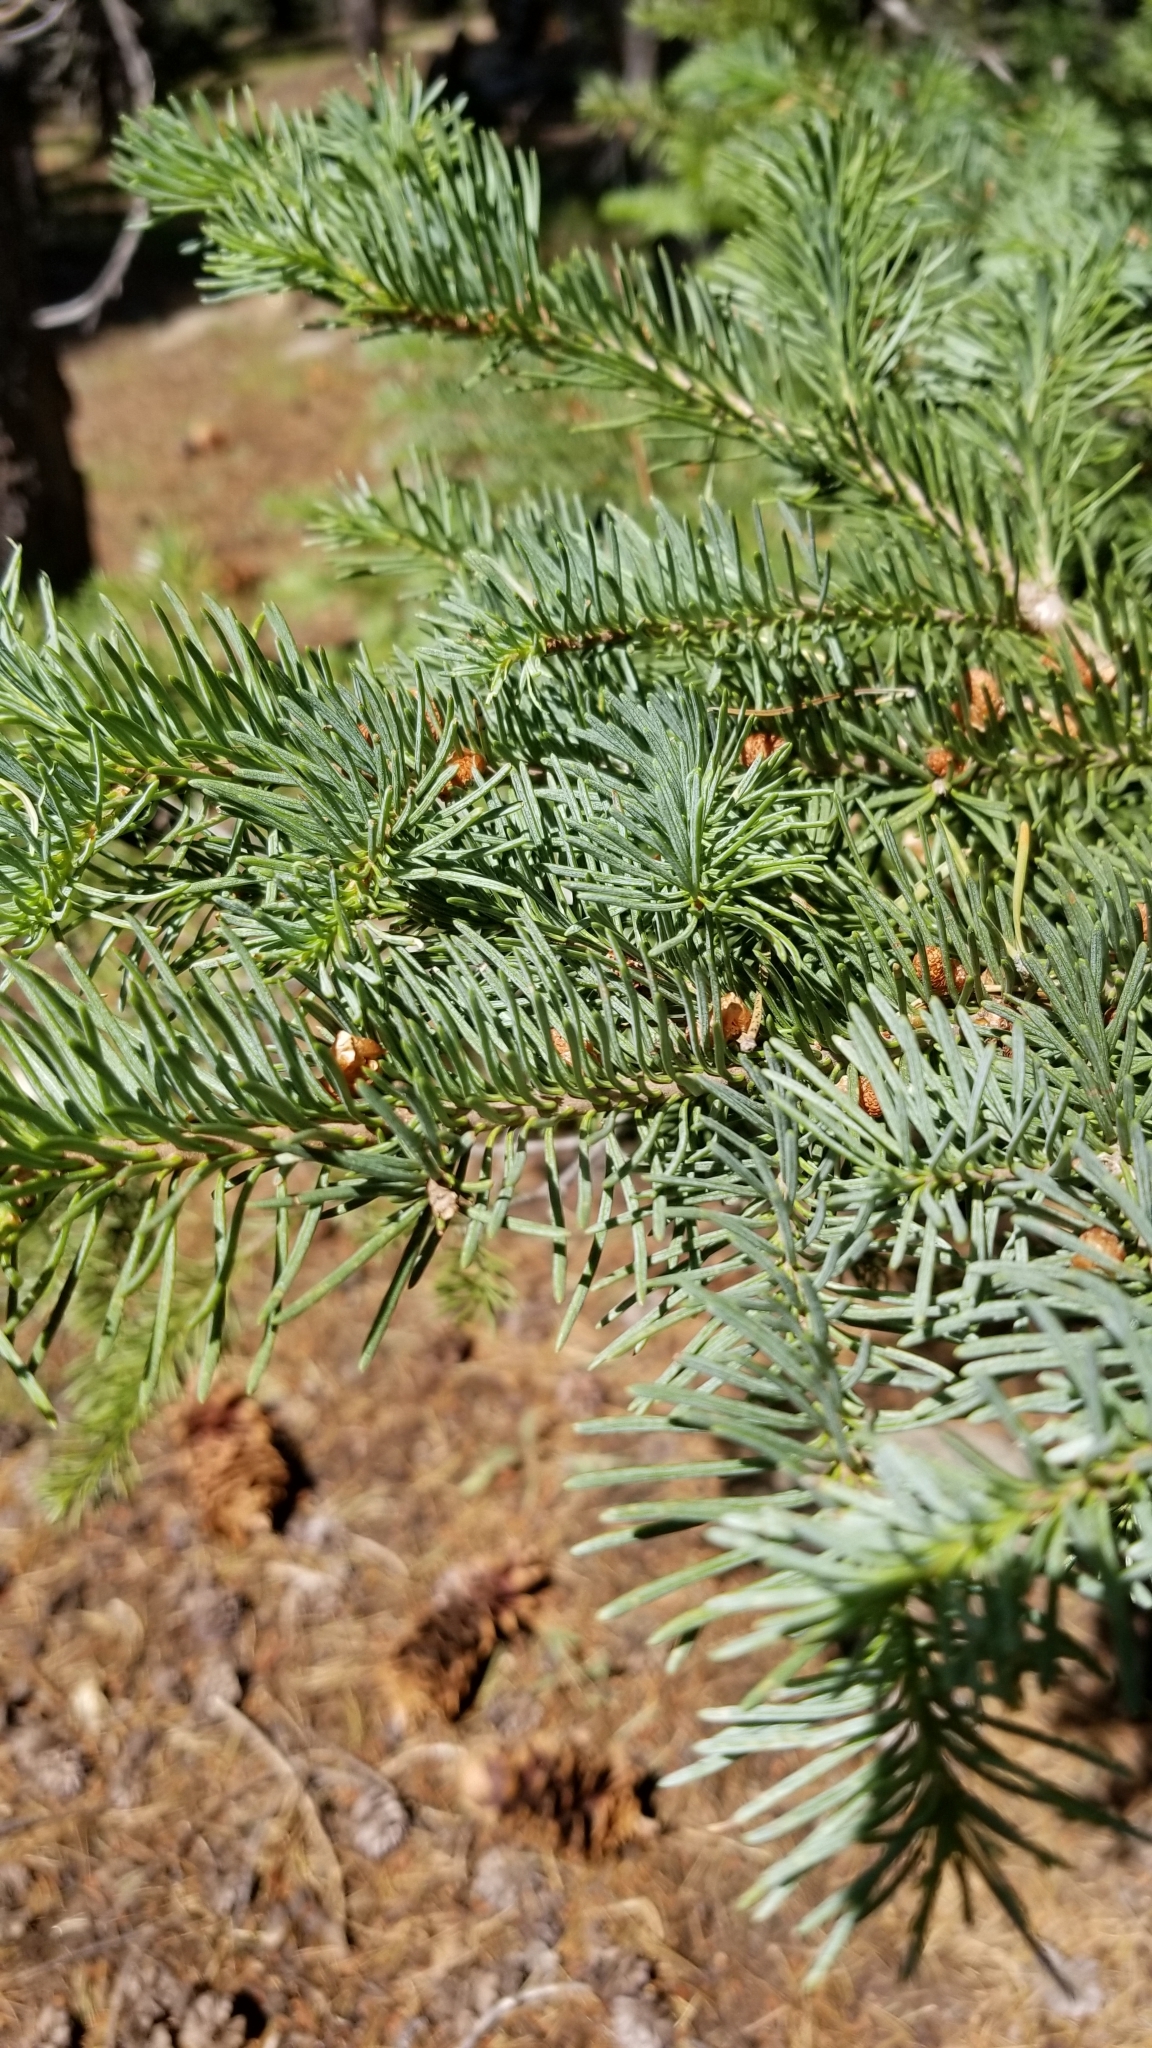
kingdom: Plantae
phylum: Tracheophyta
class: Pinopsida
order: Pinales
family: Pinaceae
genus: Abies
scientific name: Abies magnifica bis
